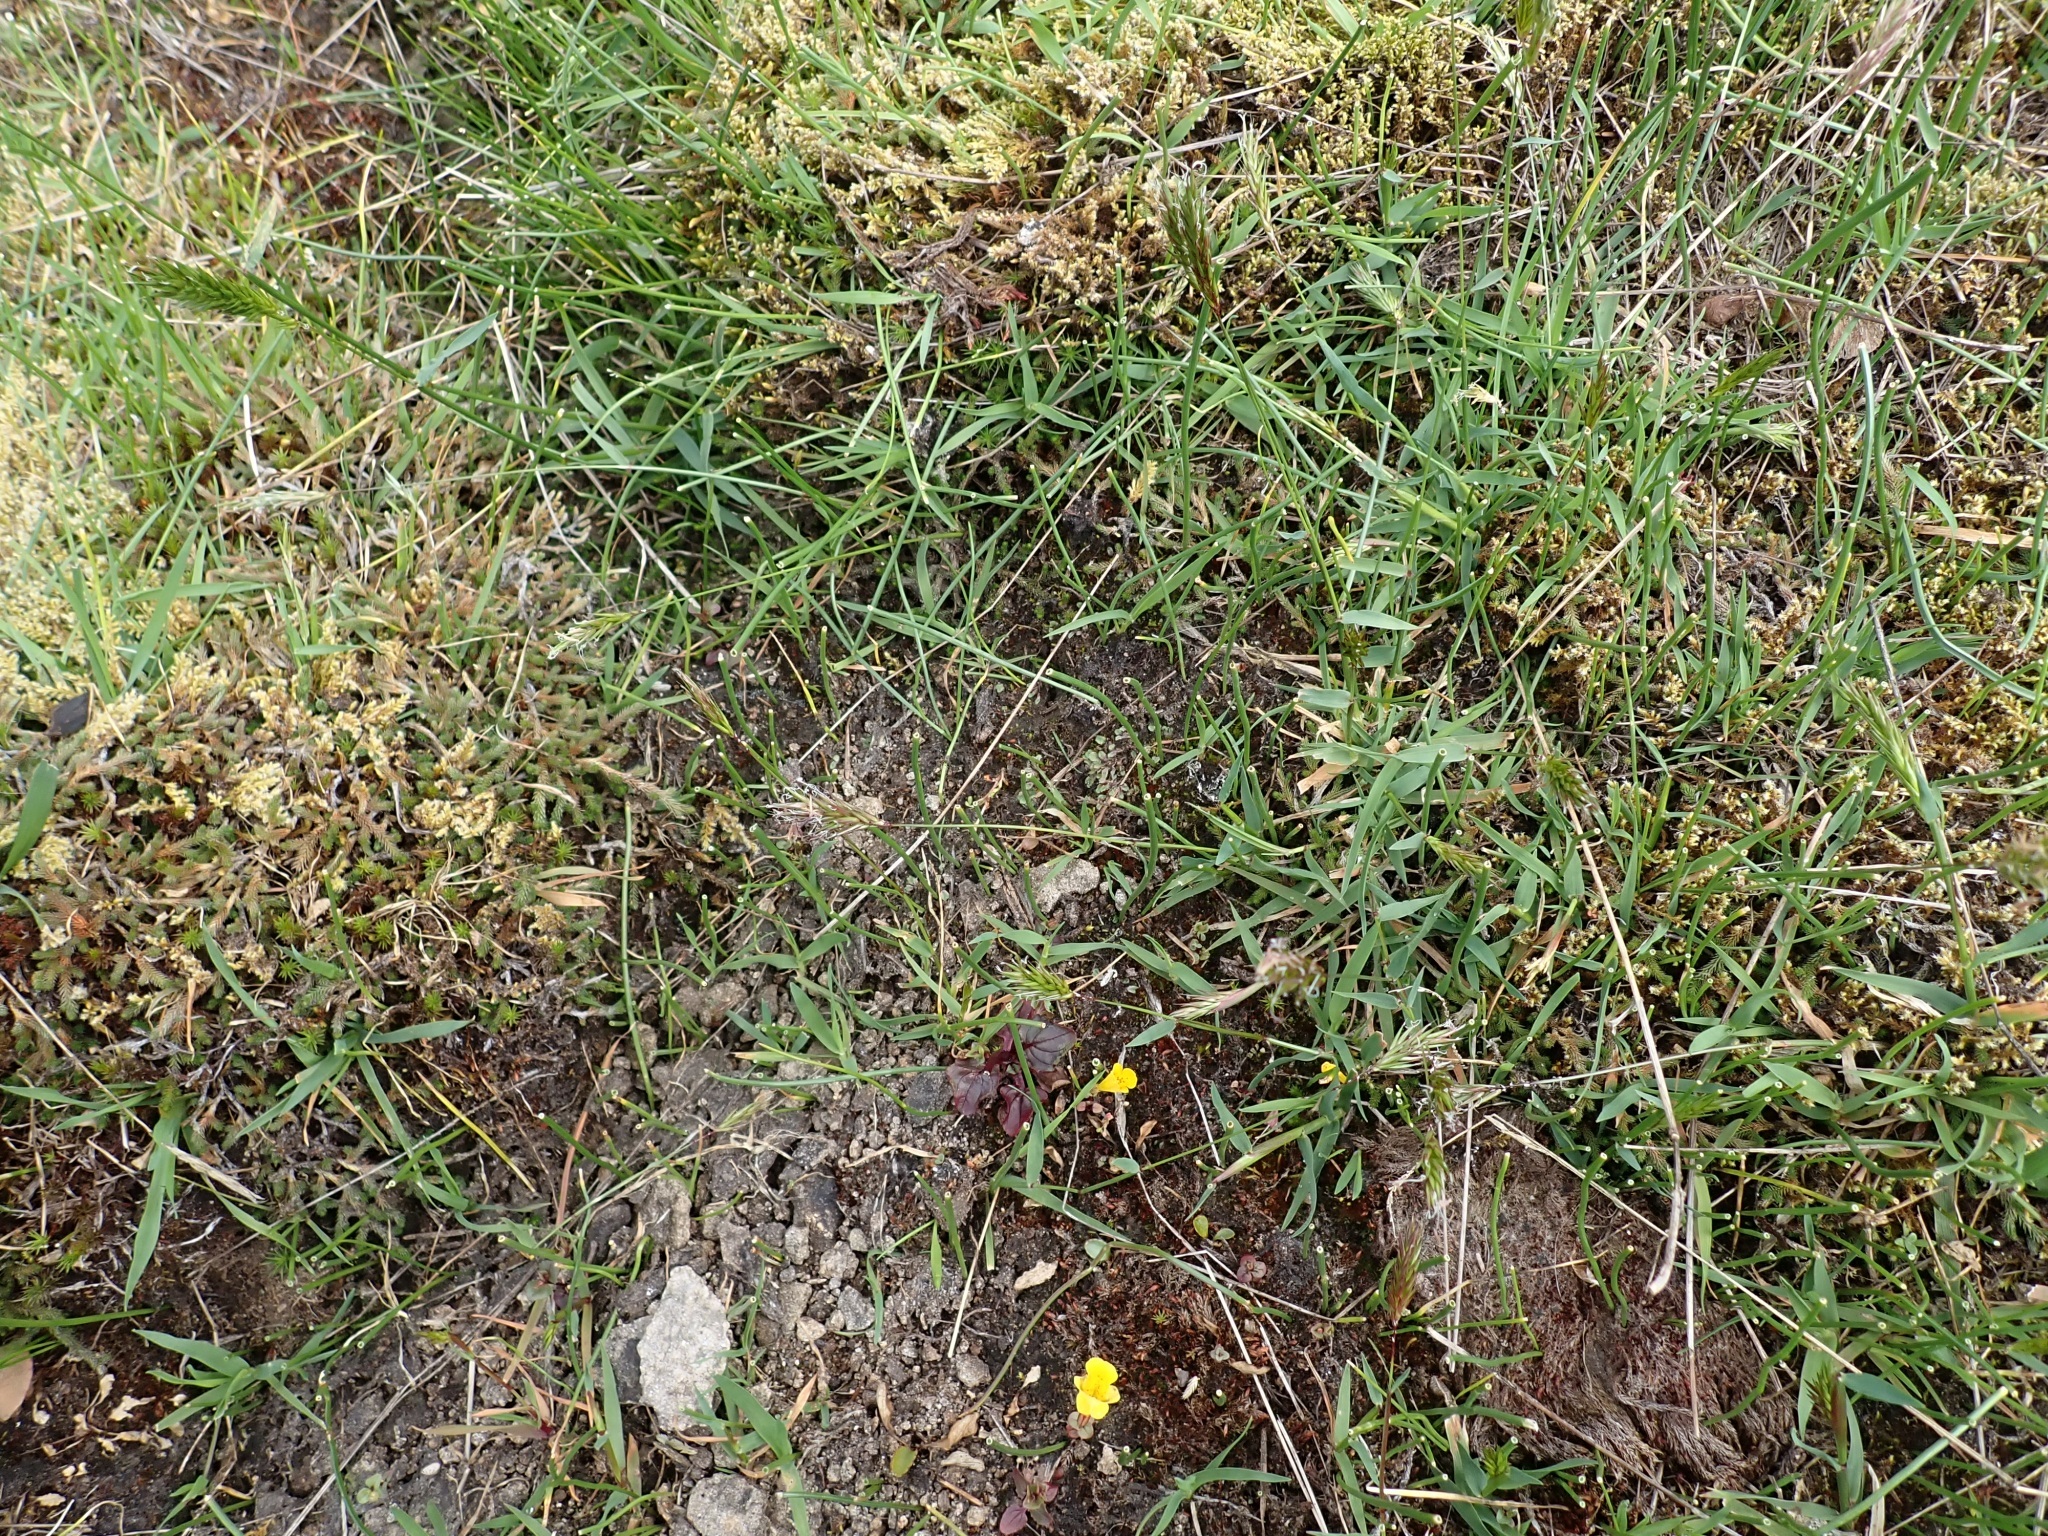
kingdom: Plantae
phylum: Marchantiophyta
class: Marchantiopsida
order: Marchantiales
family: Ricciaceae
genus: Riccia
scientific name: Riccia beyrichiana
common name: Purple crystalwort
